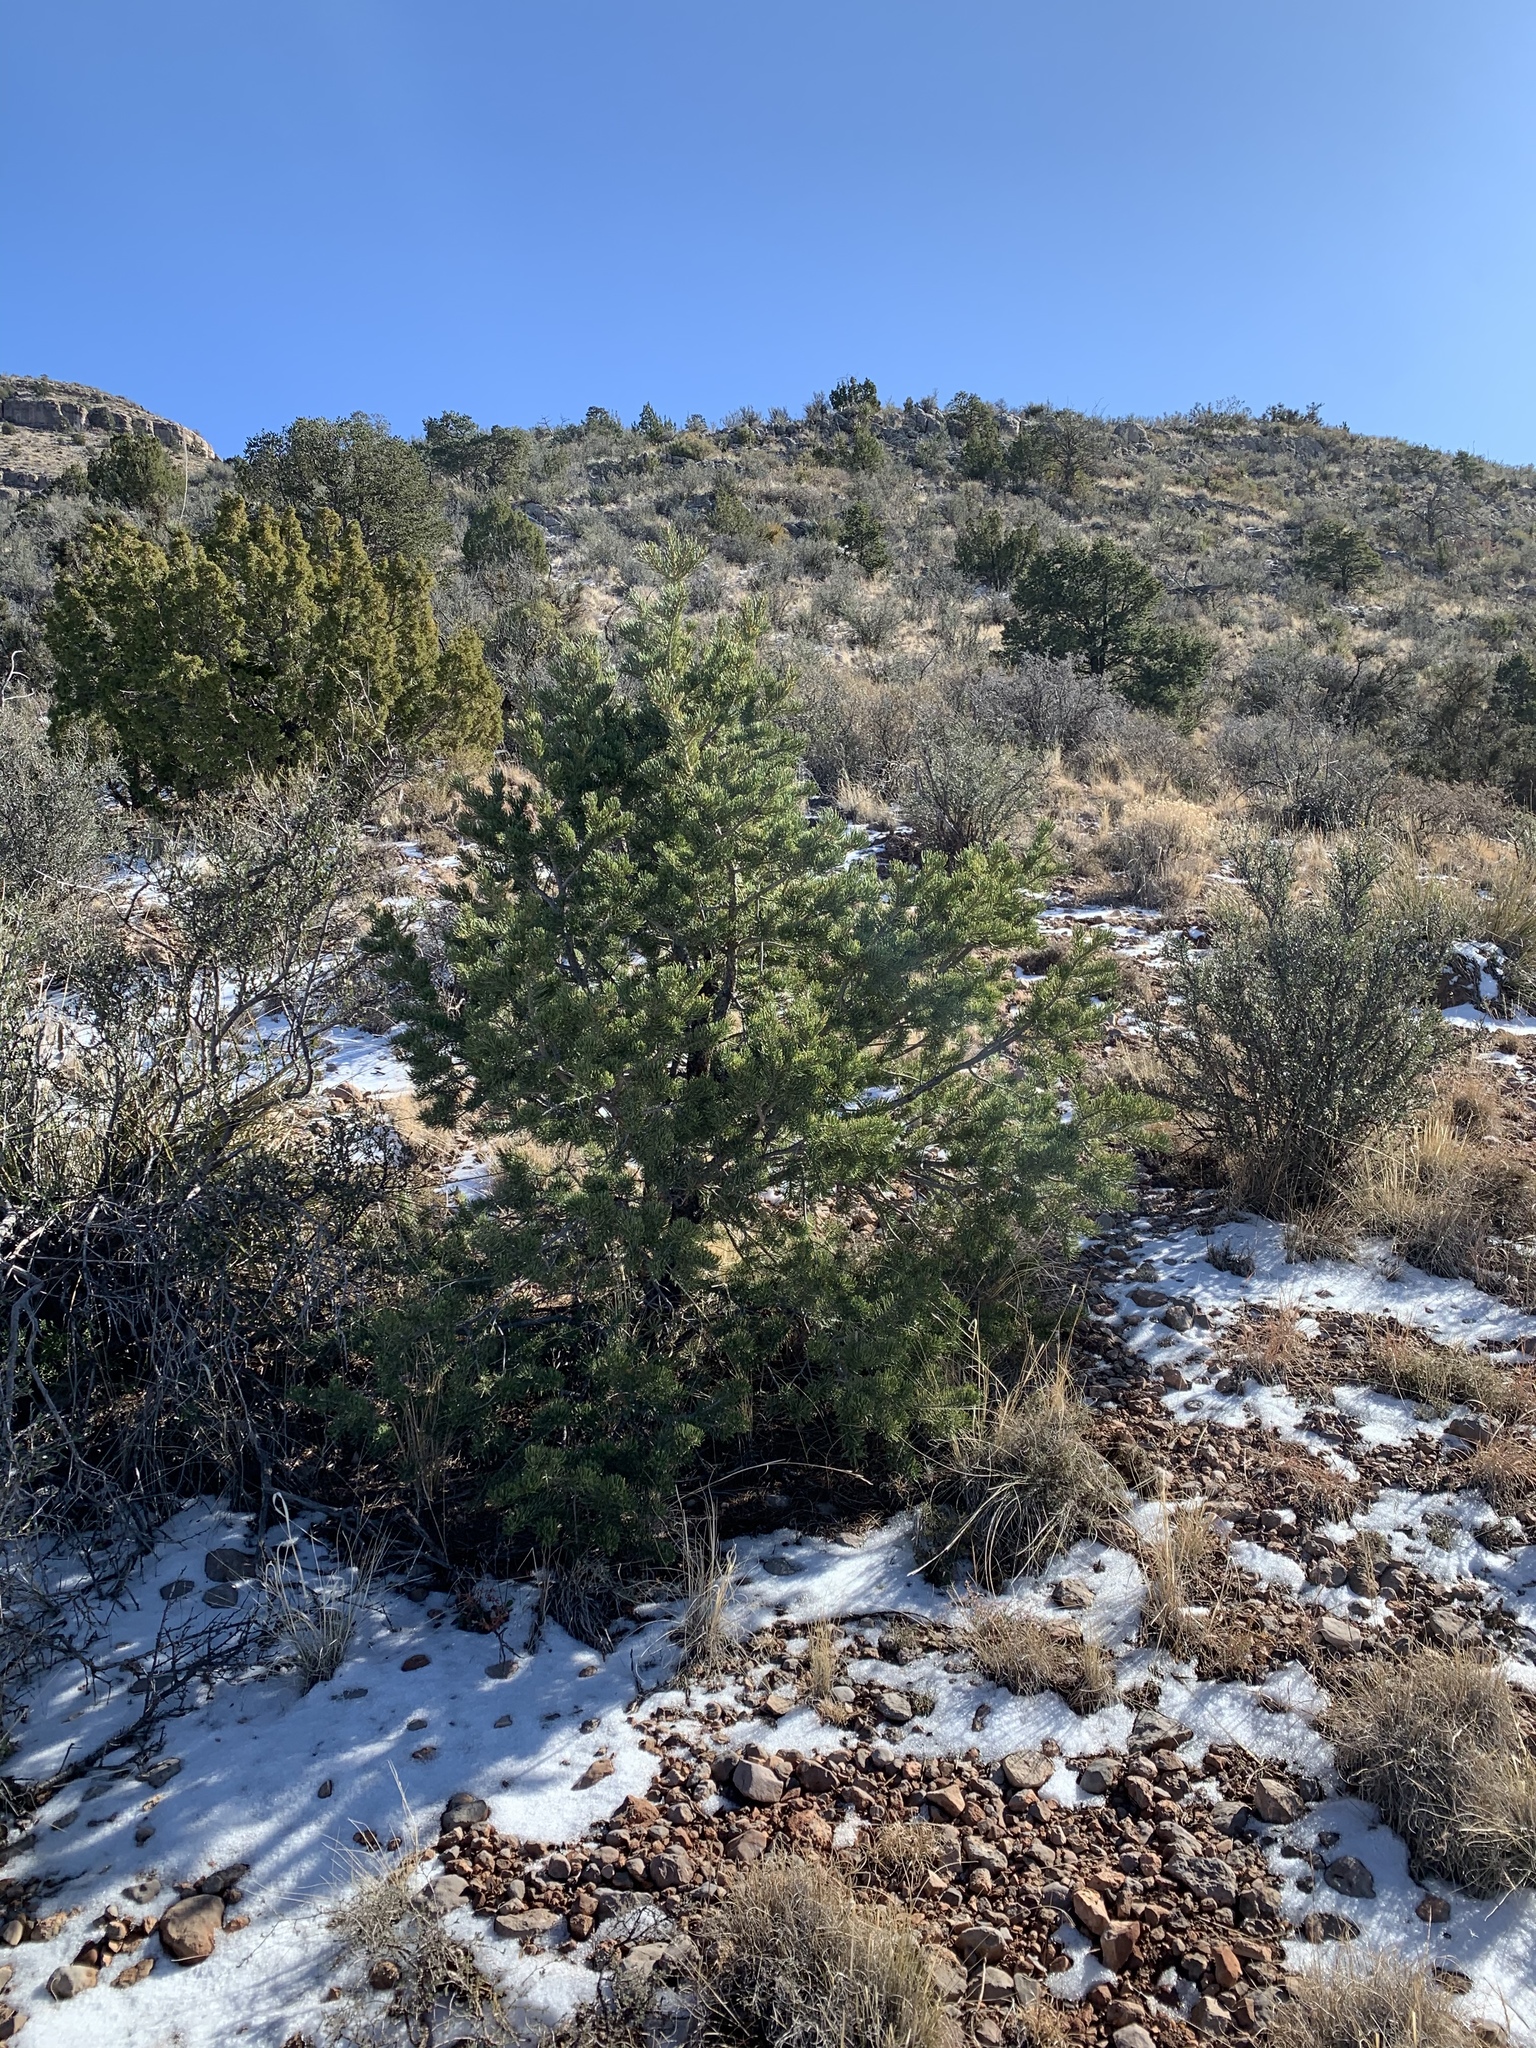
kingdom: Plantae
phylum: Tracheophyta
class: Pinopsida
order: Pinales
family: Pinaceae
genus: Pinus
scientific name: Pinus edulis
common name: Colorado pinyon
